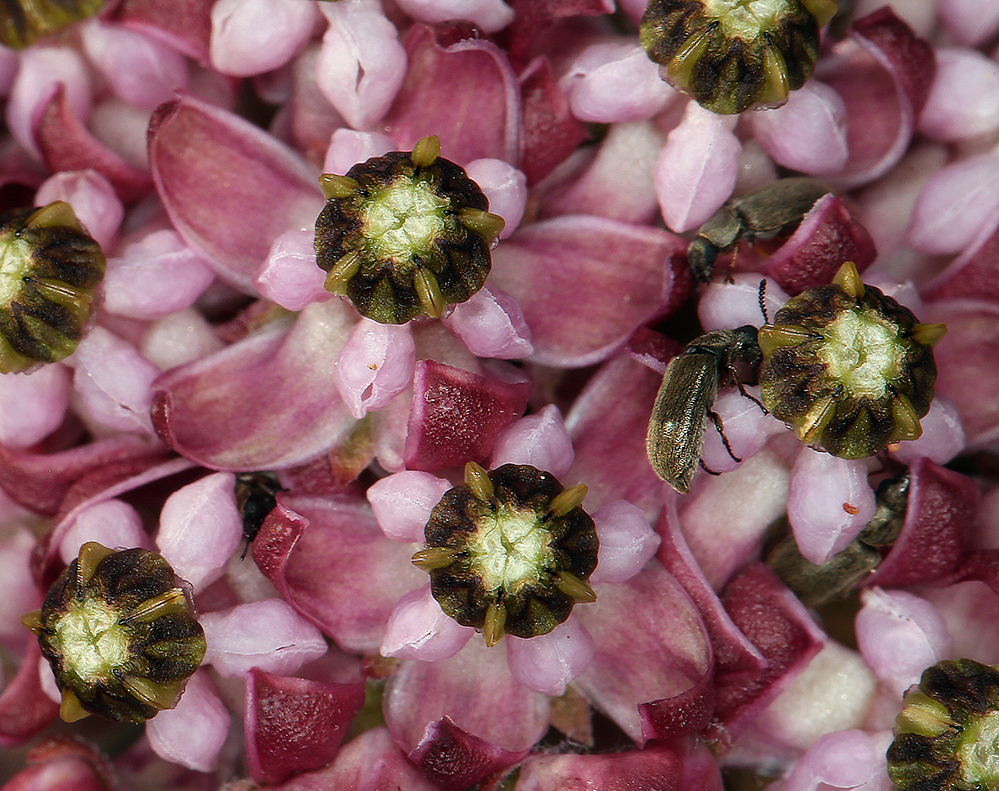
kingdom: Plantae
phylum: Tracheophyta
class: Magnoliopsida
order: Gentianales
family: Apocynaceae
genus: Asclepias
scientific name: Asclepias solanoana
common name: Serpentine milkweed
